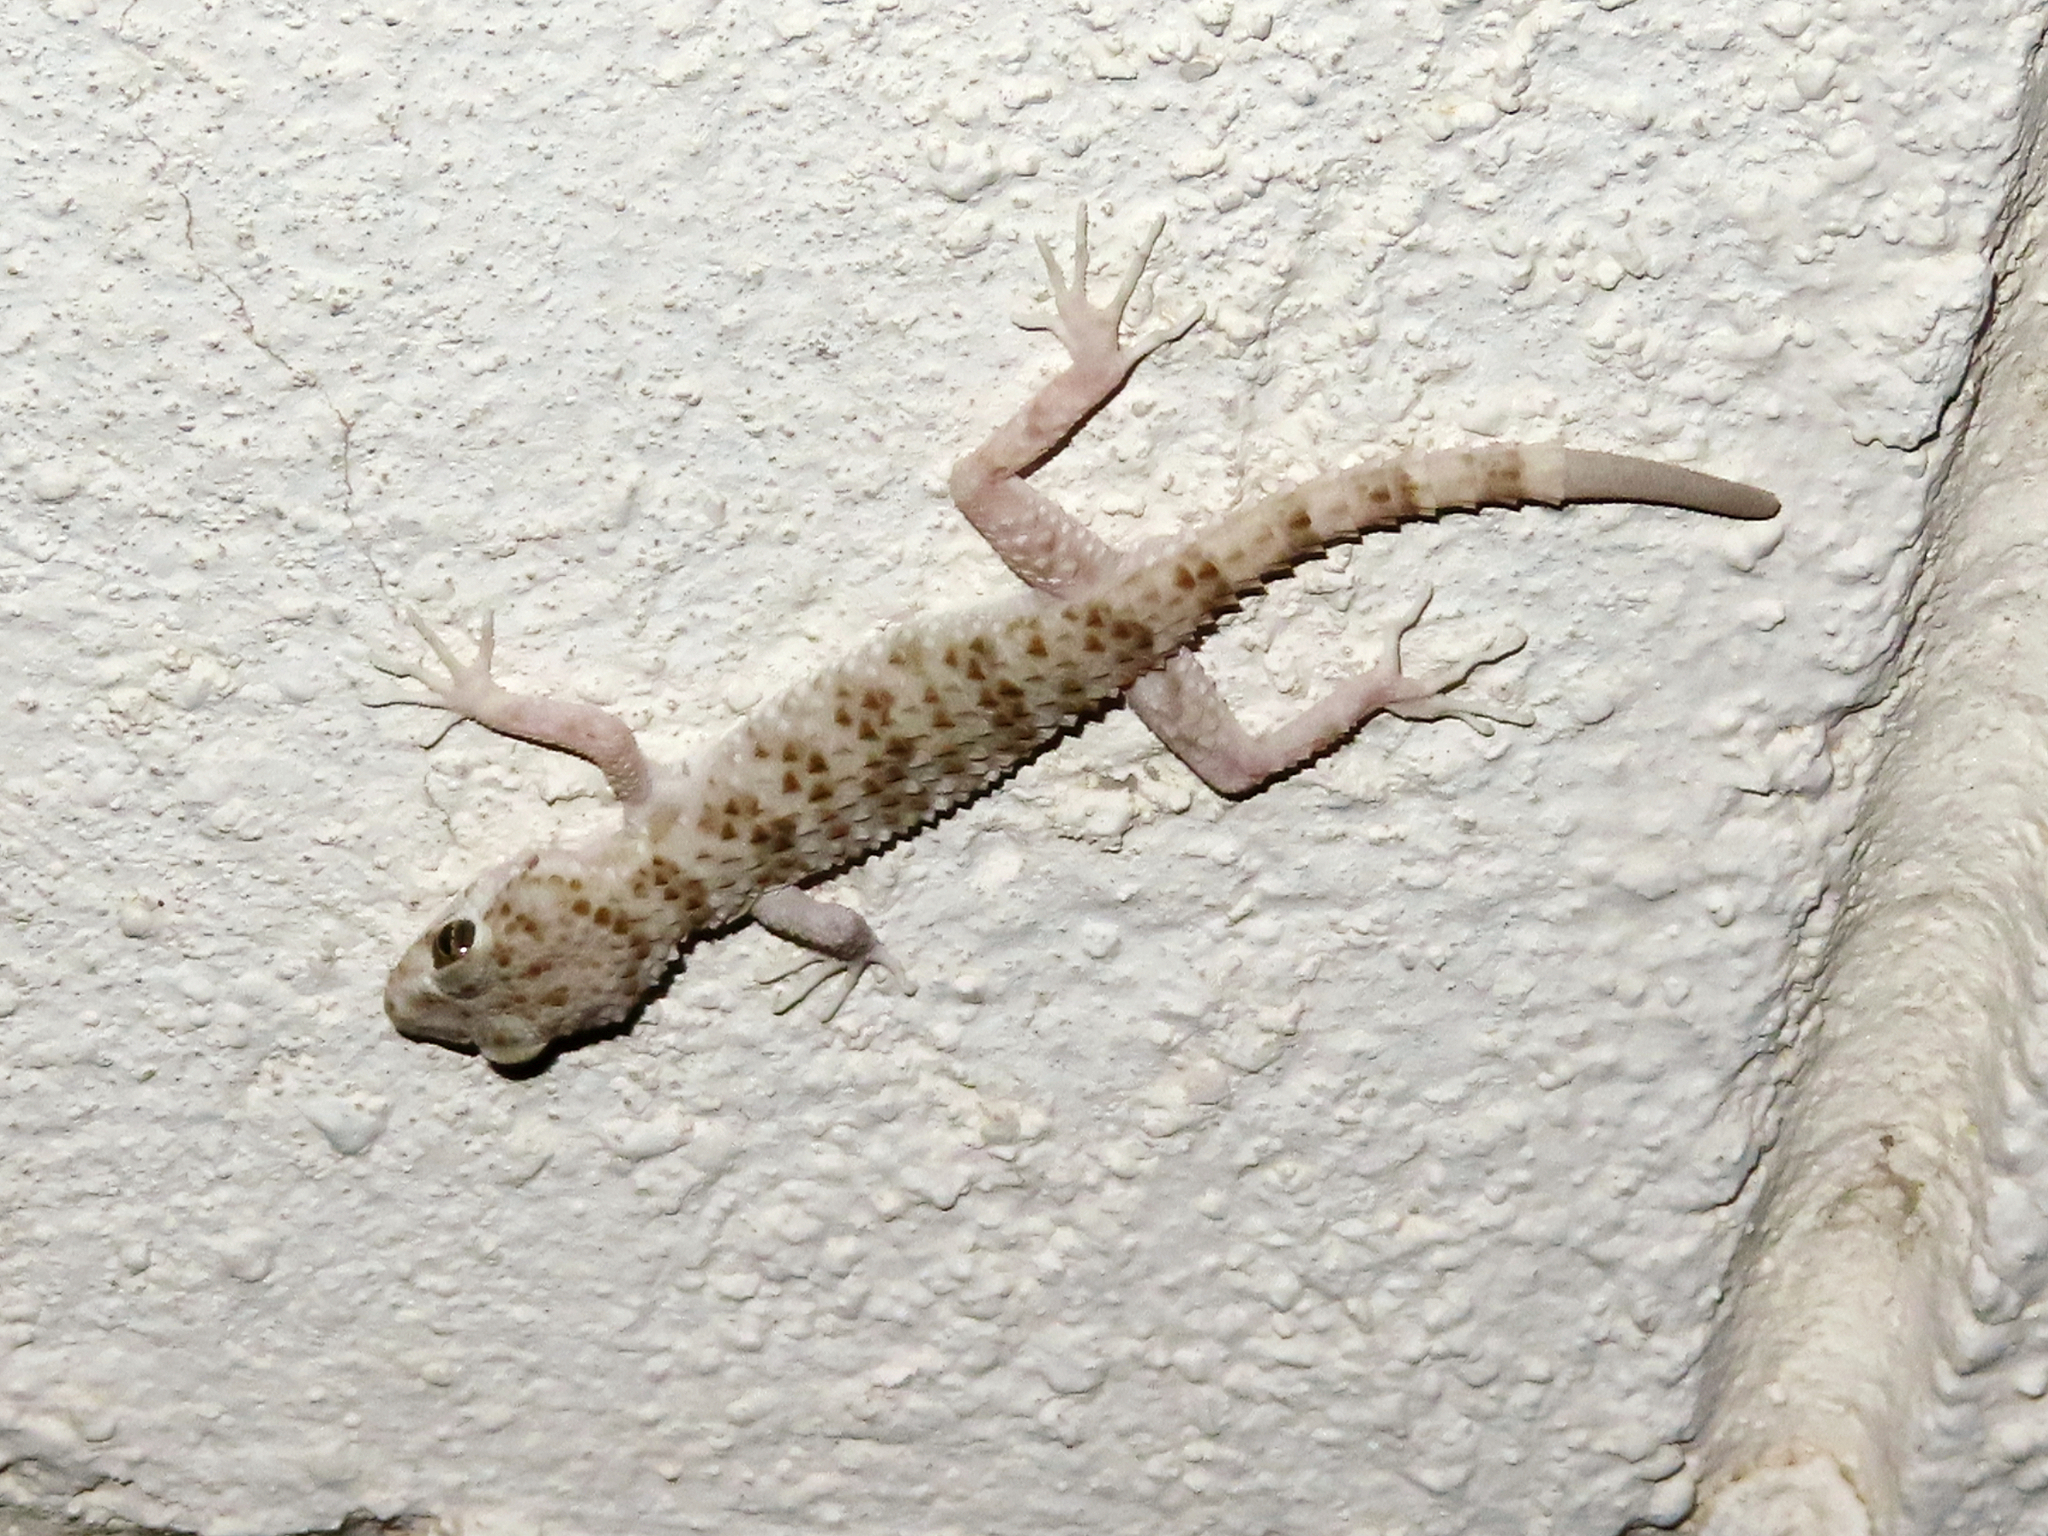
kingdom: Animalia
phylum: Chordata
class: Squamata
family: Gekkonidae
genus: Tenuidactylus
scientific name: Tenuidactylus caspius
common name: Caspian bent-toed gecko
